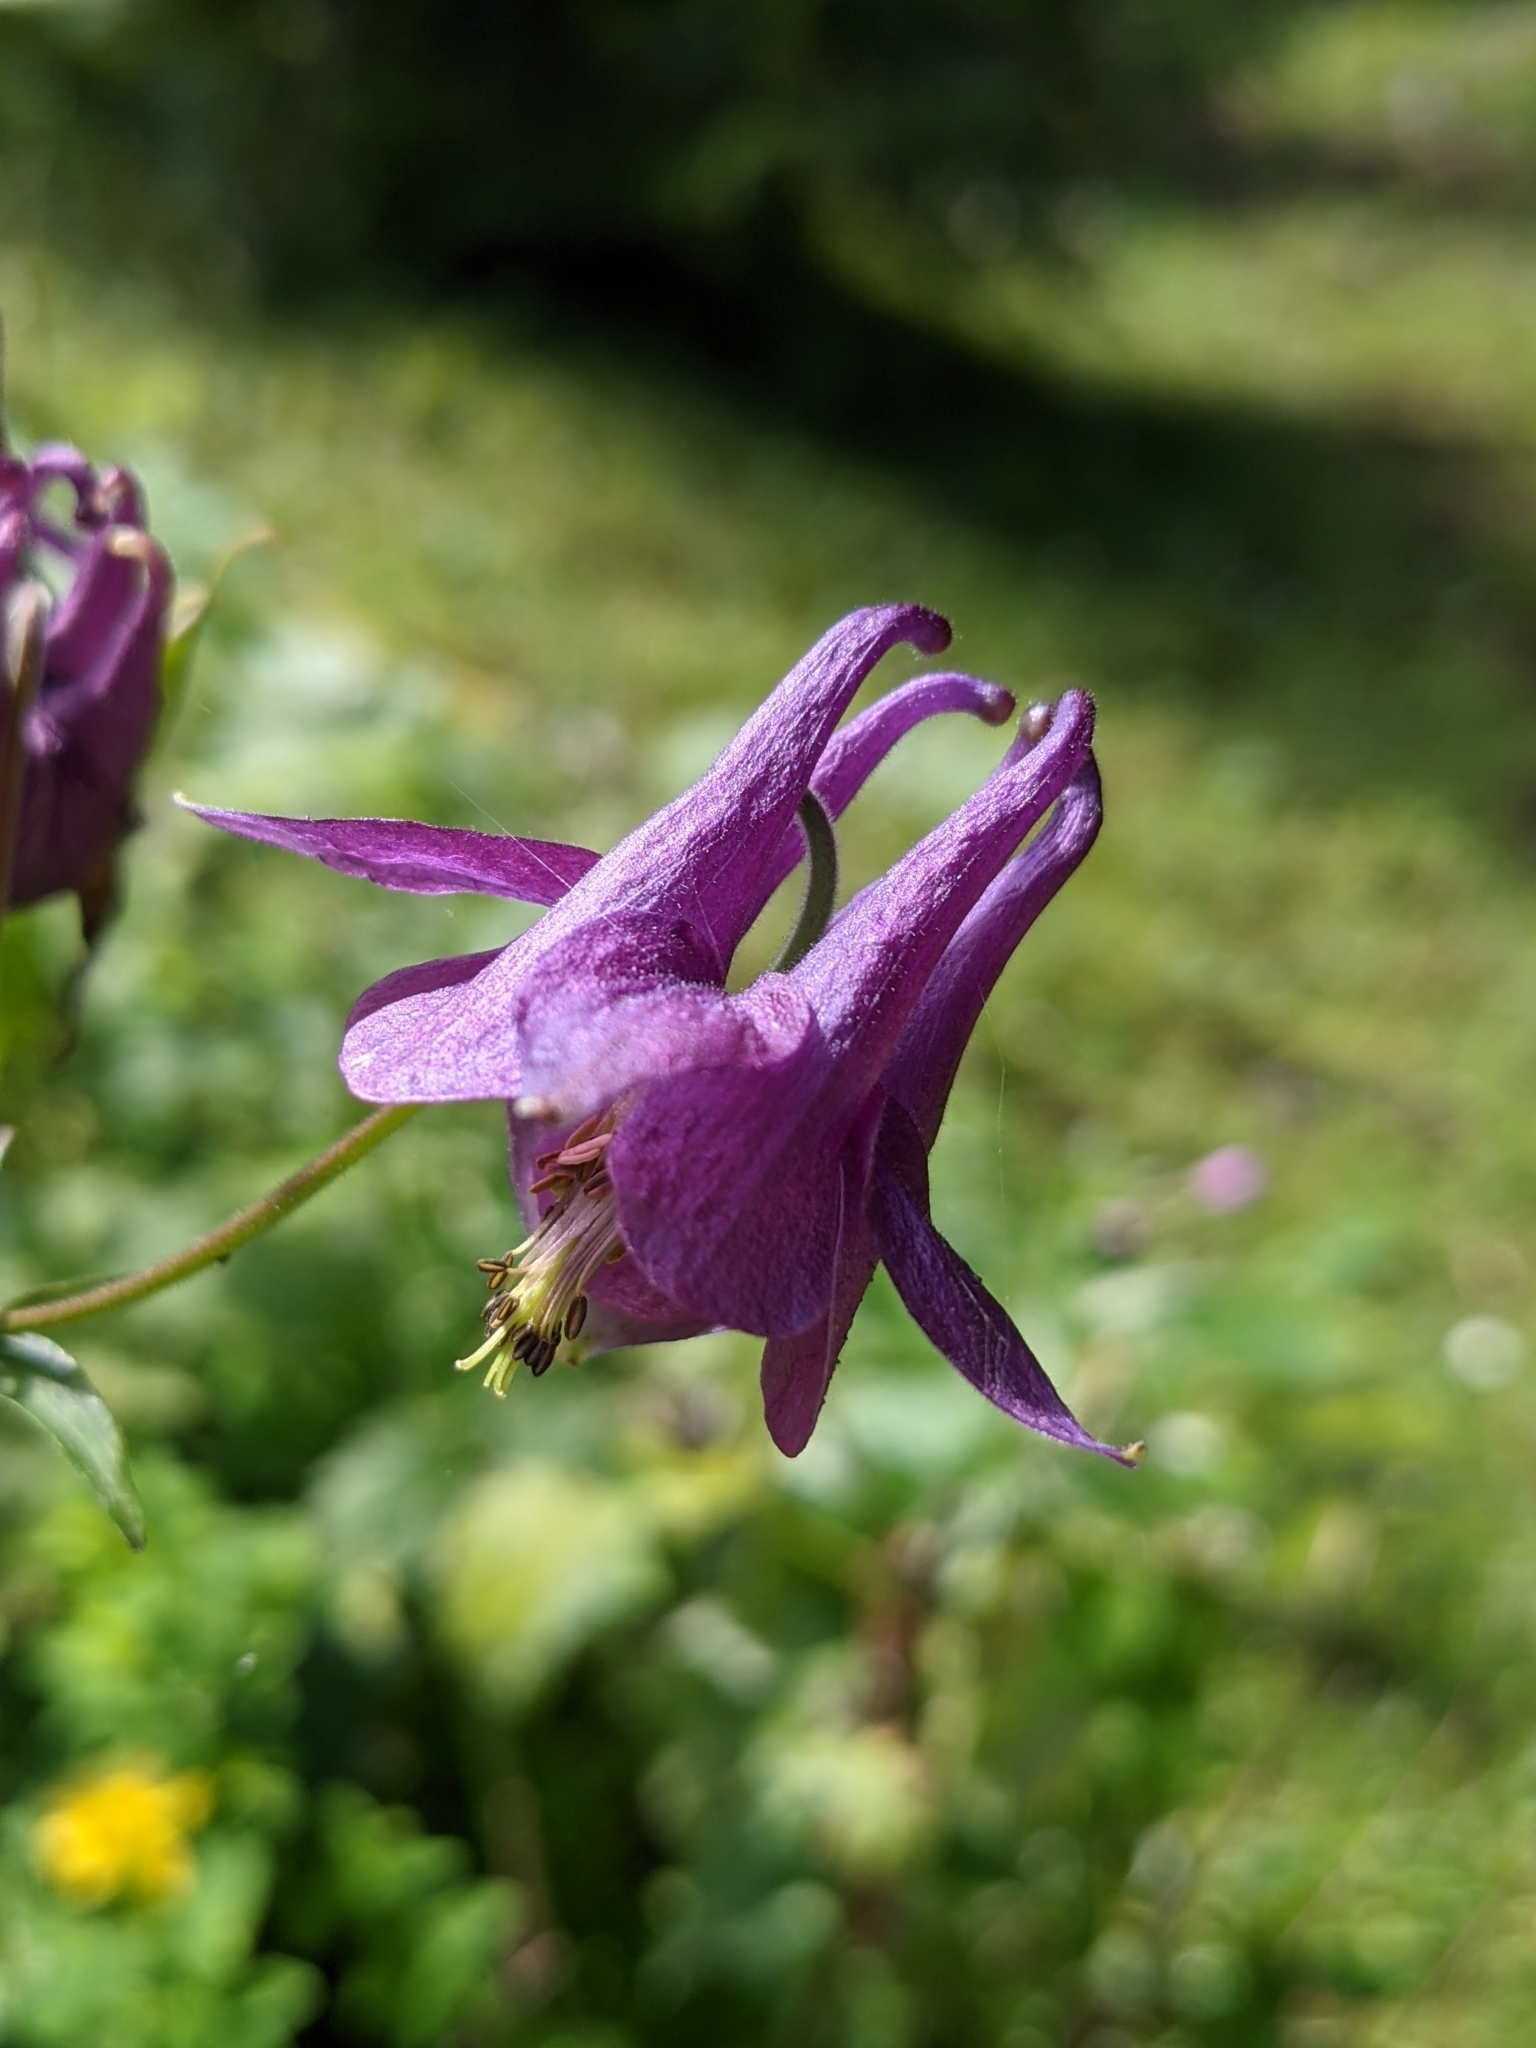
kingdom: Plantae
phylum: Tracheophyta
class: Magnoliopsida
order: Ranunculales
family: Ranunculaceae
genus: Aquilegia
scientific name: Aquilegia atrata
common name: Dark columbine
